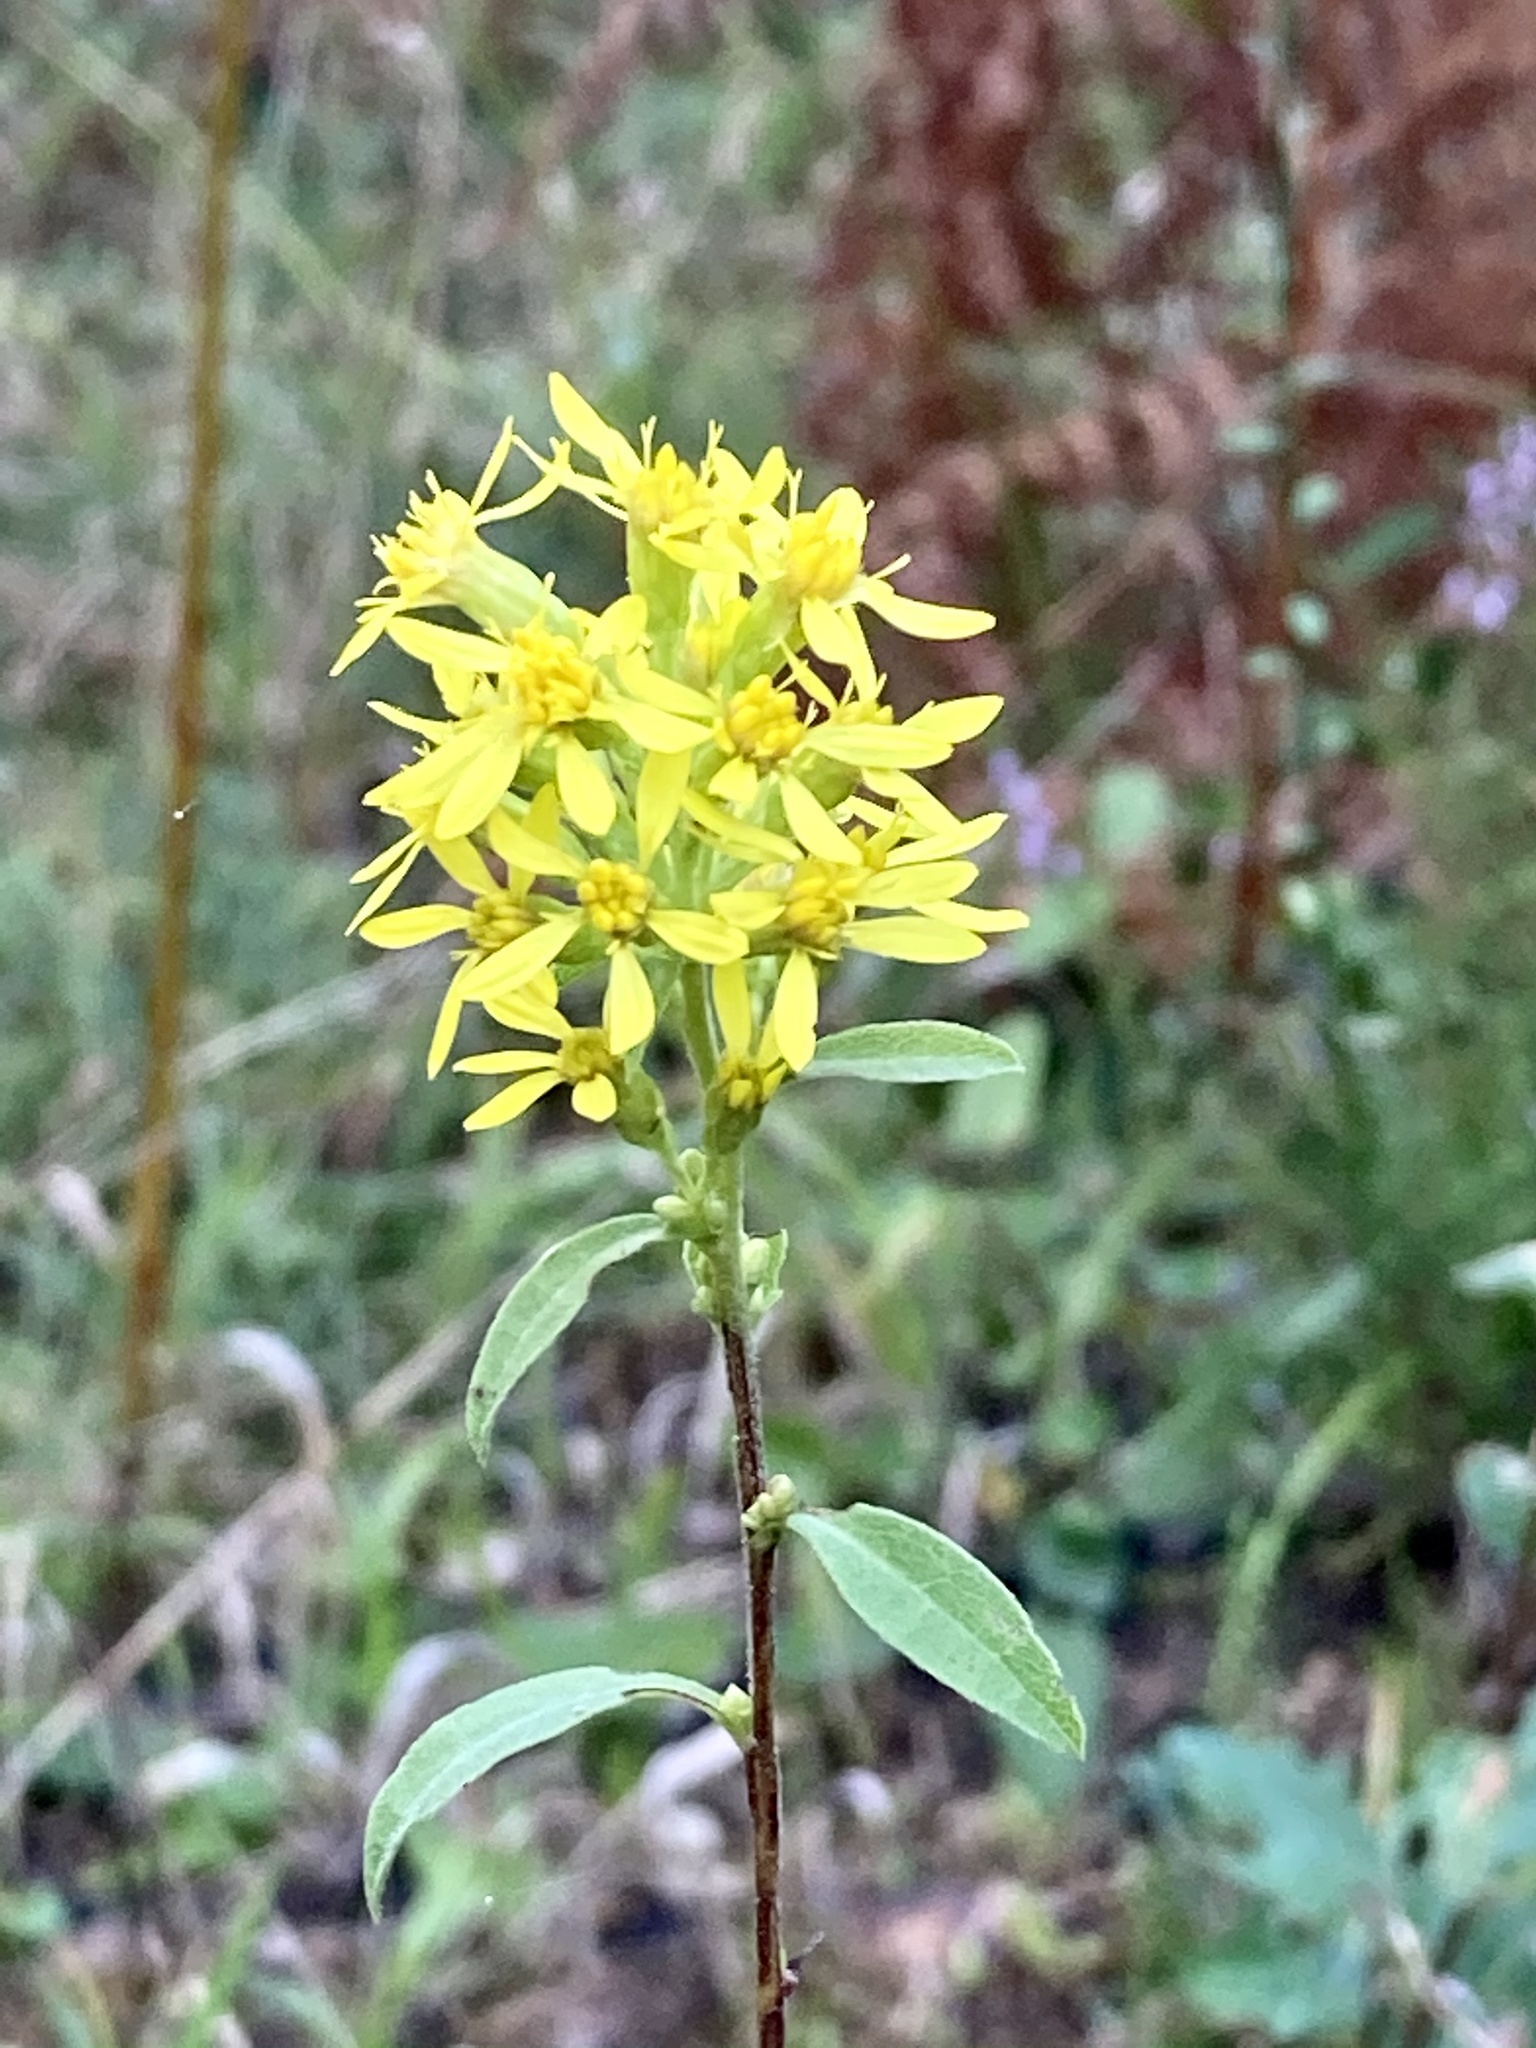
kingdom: Plantae
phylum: Tracheophyta
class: Magnoliopsida
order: Asterales
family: Asteraceae
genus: Solidago
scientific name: Solidago virgaurea
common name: Goldenrod
